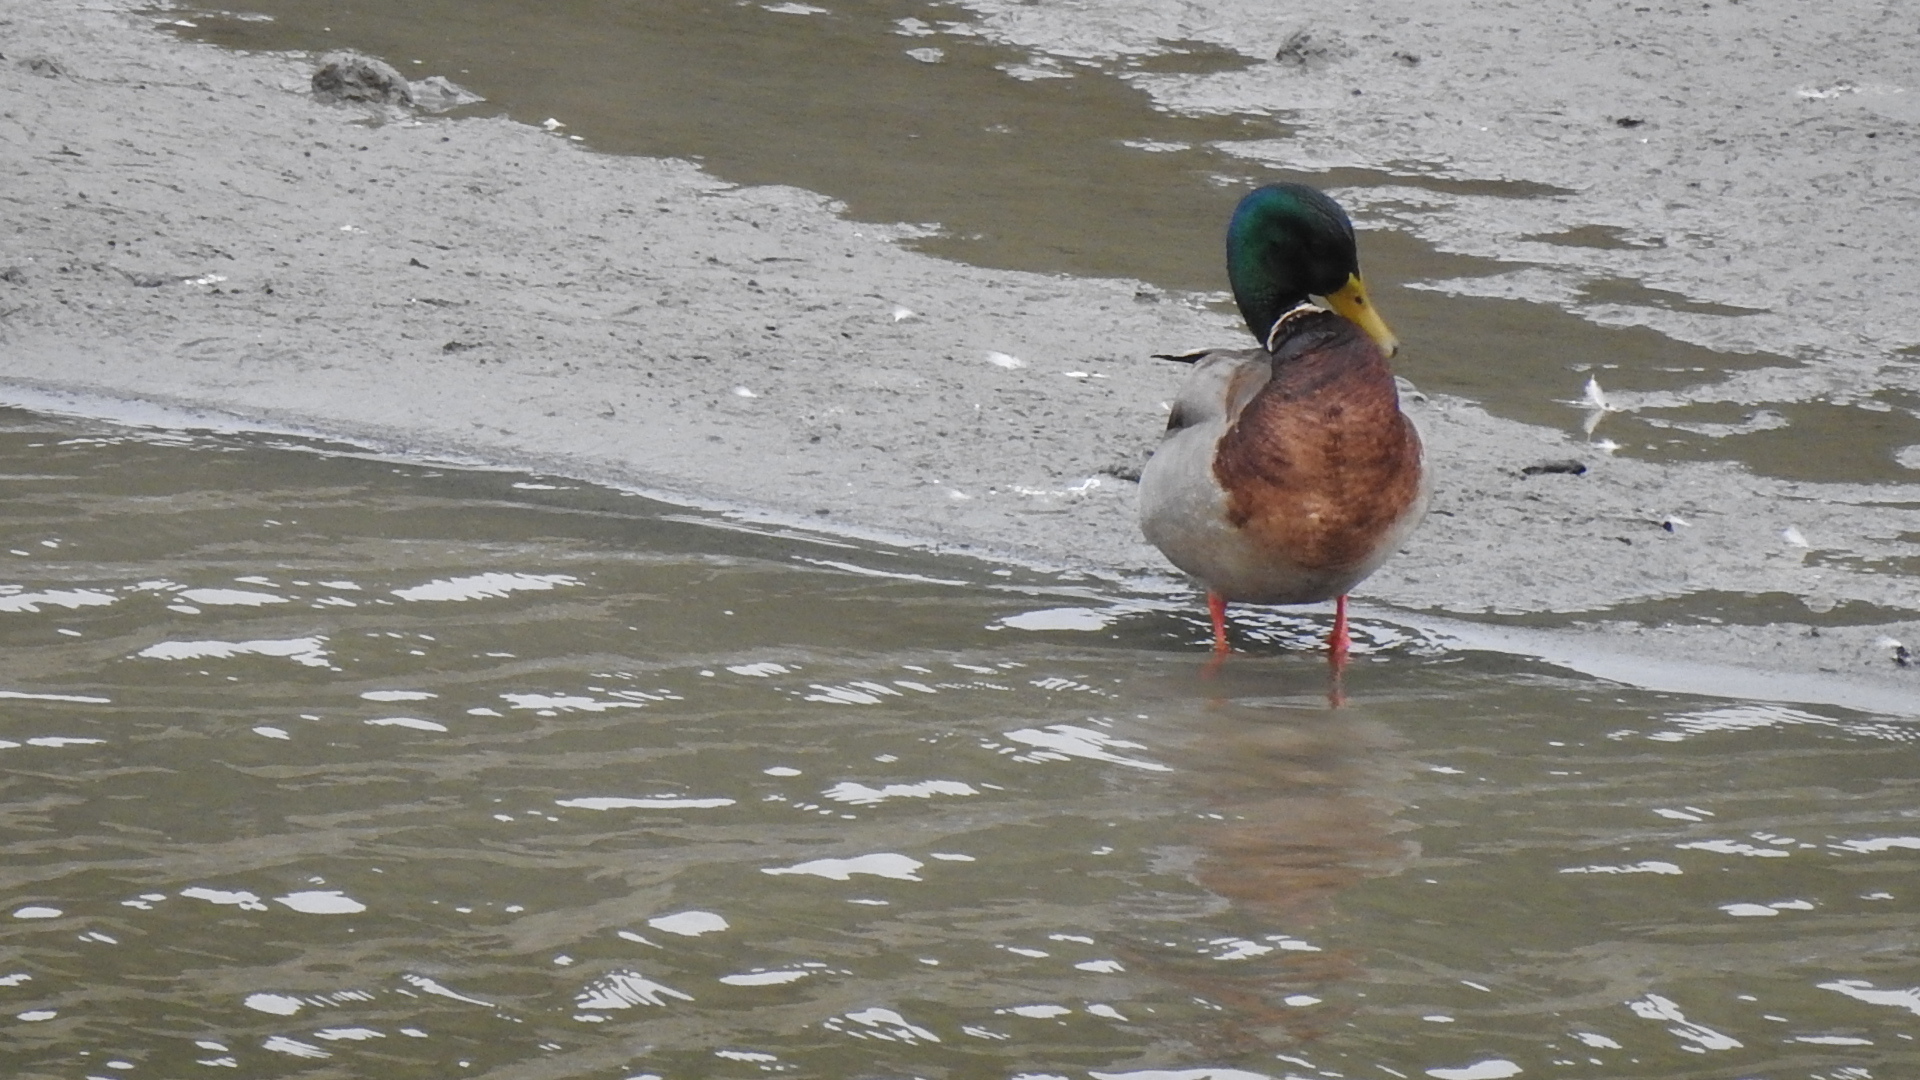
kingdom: Animalia
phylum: Chordata
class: Aves
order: Anseriformes
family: Anatidae
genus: Anas
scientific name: Anas platyrhynchos
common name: Mallard
